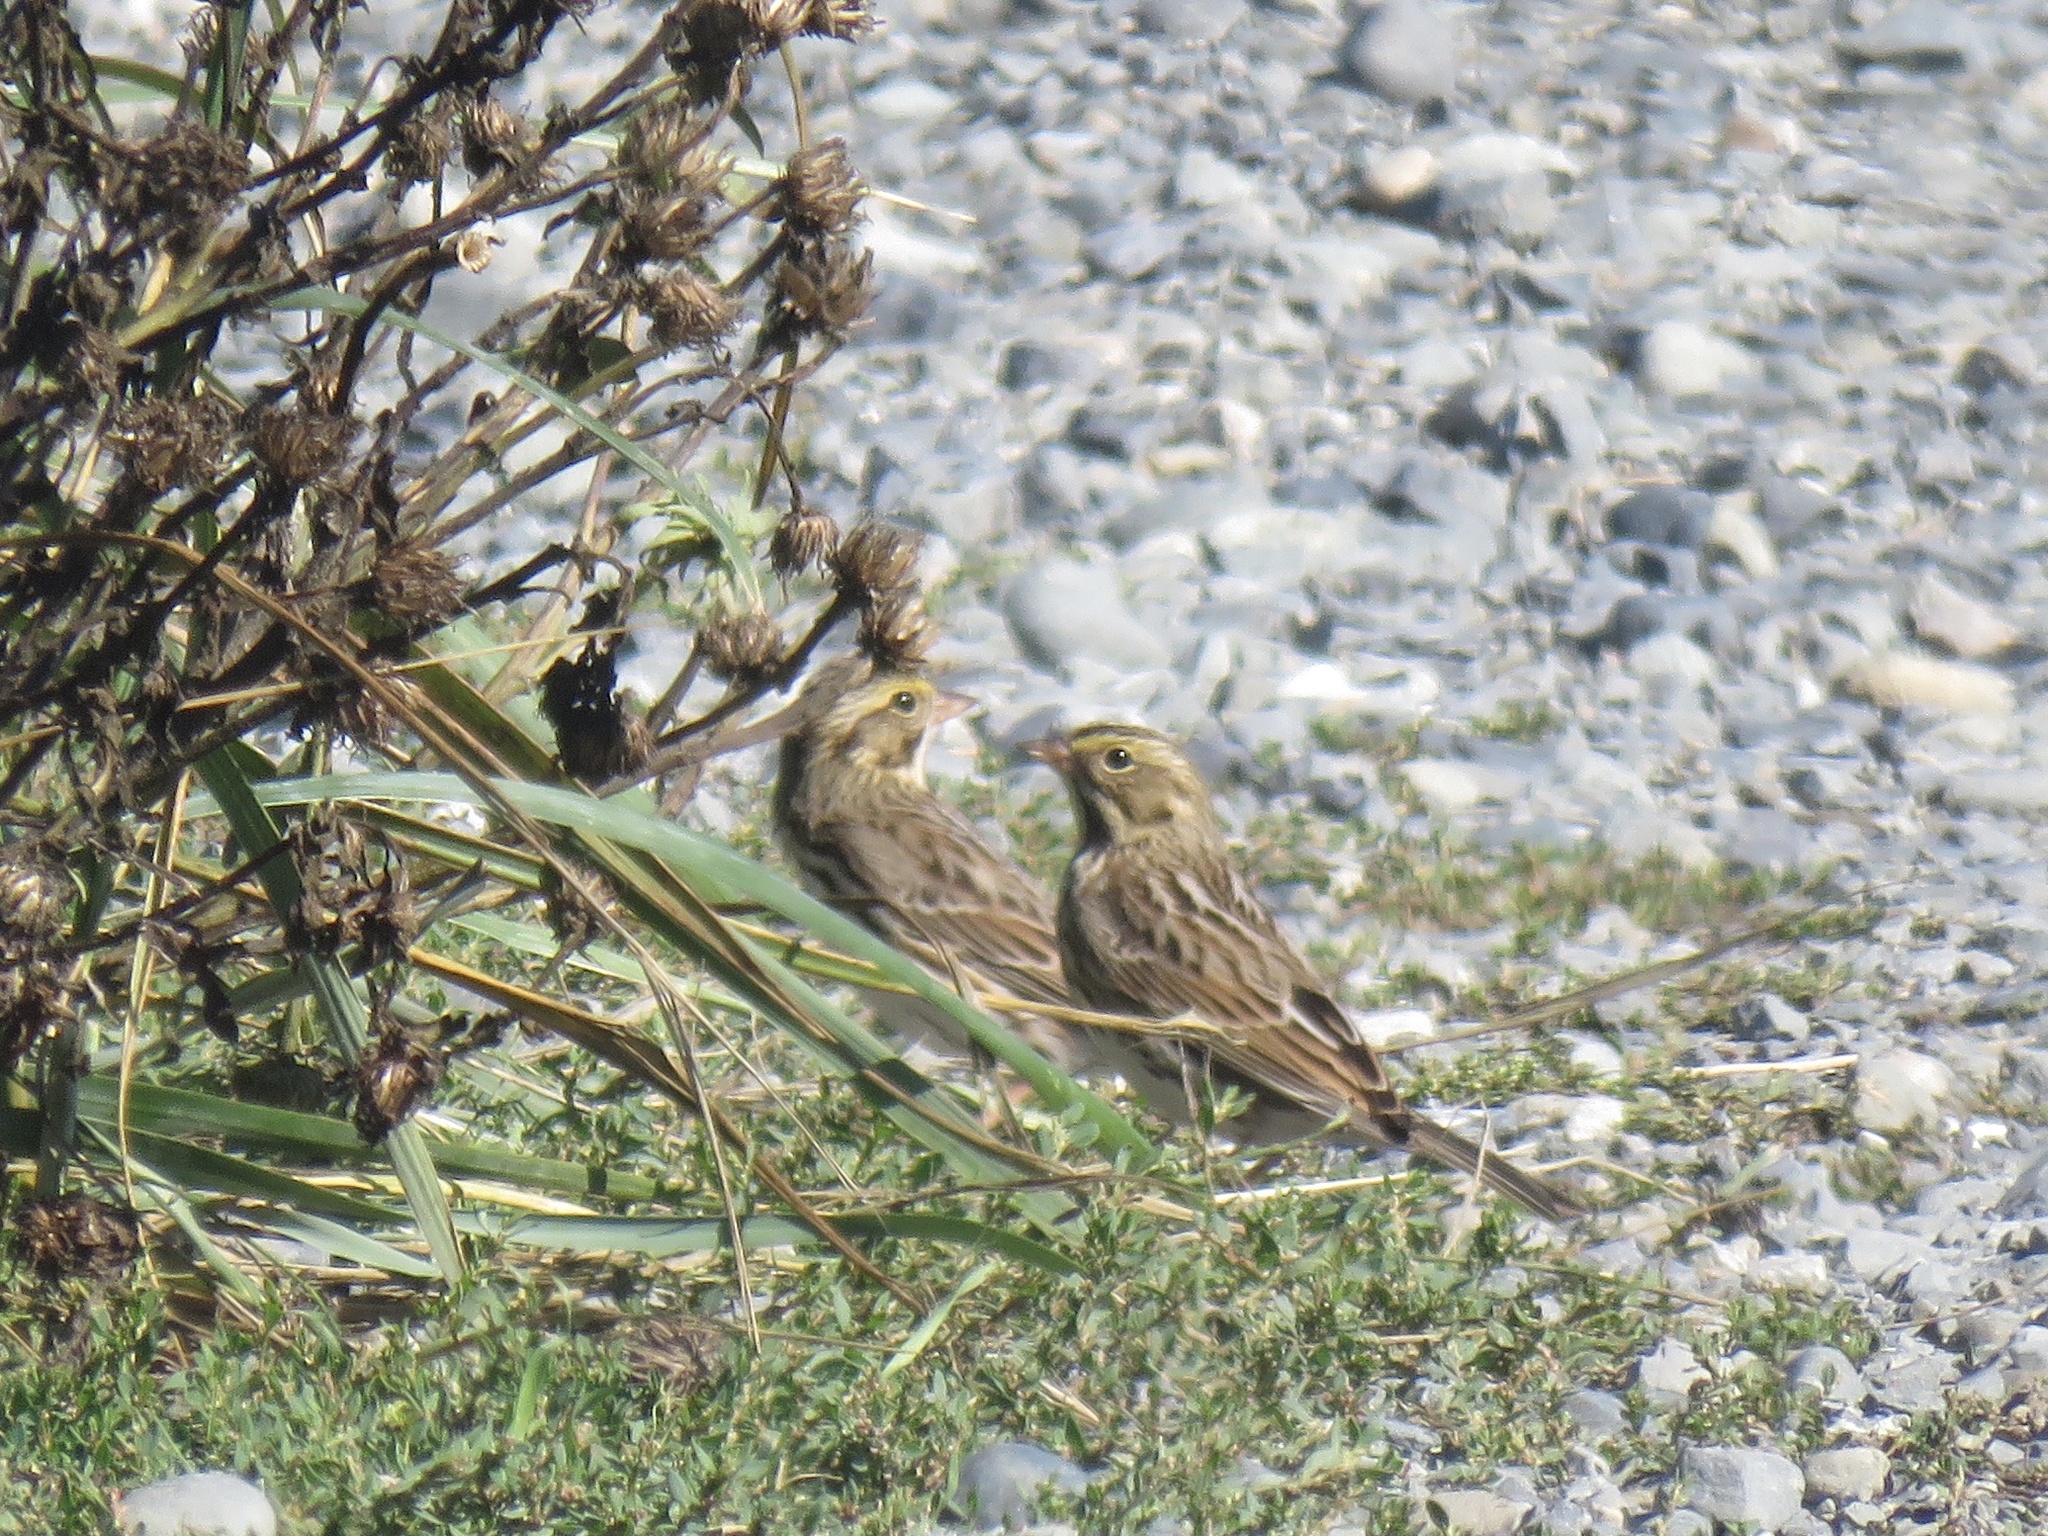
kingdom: Animalia
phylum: Chordata
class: Aves
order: Passeriformes
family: Passerellidae
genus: Passerculus
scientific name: Passerculus sandwichensis
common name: Savannah sparrow
